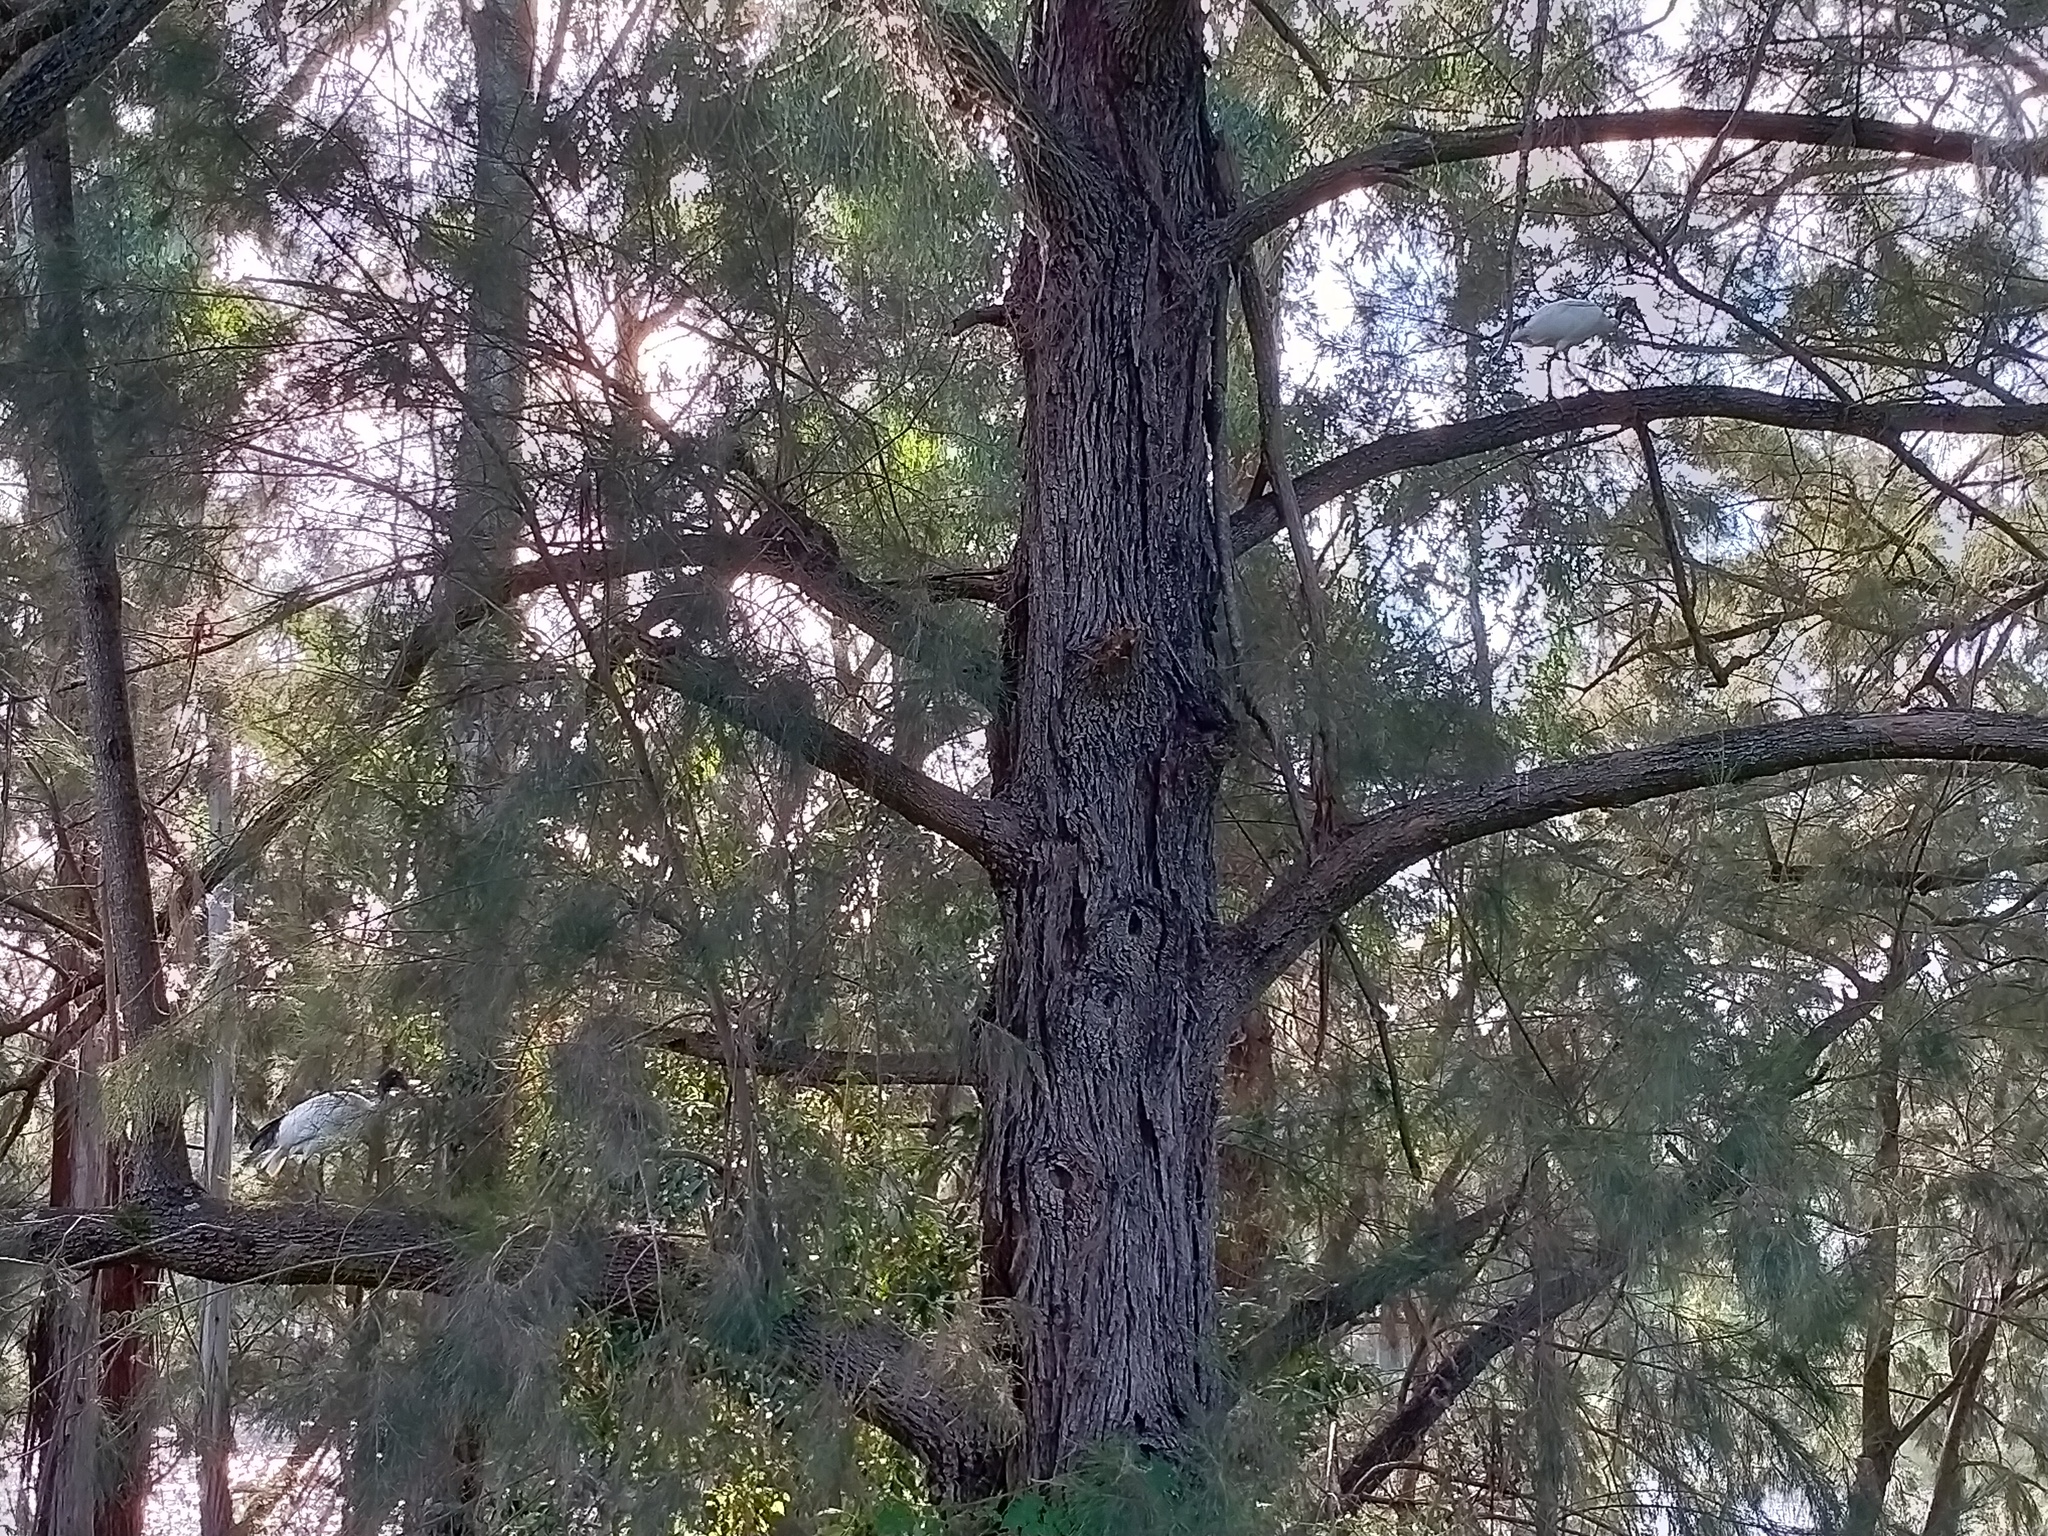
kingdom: Animalia
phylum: Chordata
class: Aves
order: Pelecaniformes
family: Threskiornithidae
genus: Threskiornis
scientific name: Threskiornis molucca
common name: Australian white ibis
